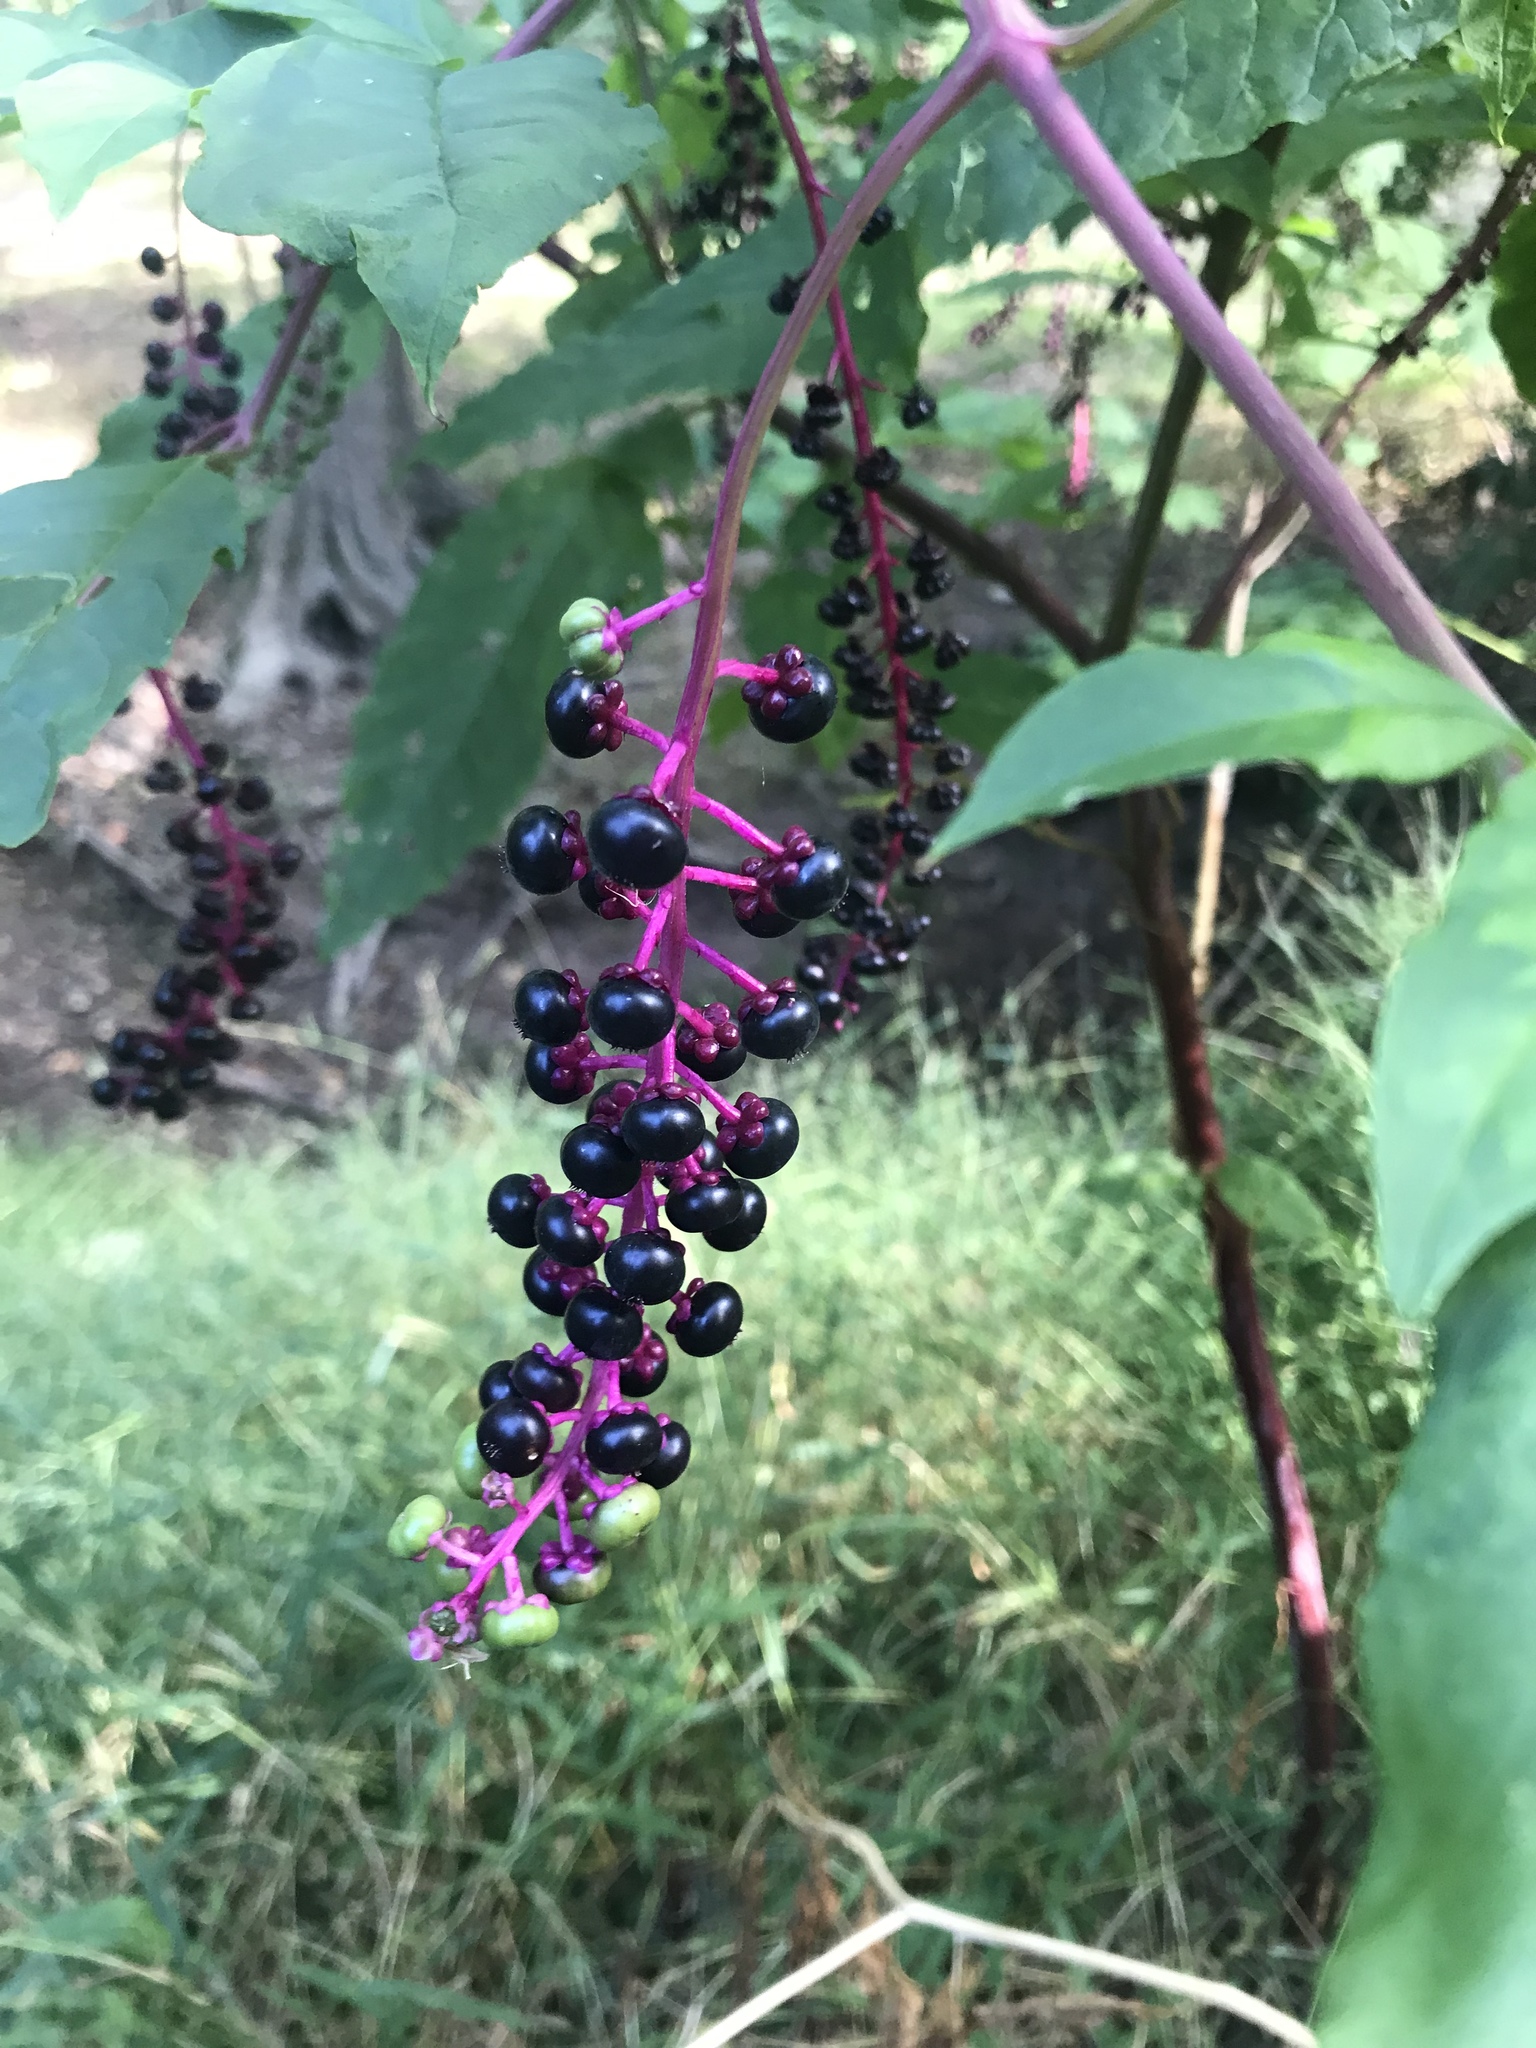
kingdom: Plantae
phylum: Tracheophyta
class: Magnoliopsida
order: Caryophyllales
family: Phytolaccaceae
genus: Phytolacca
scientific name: Phytolacca americana
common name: American pokeweed
